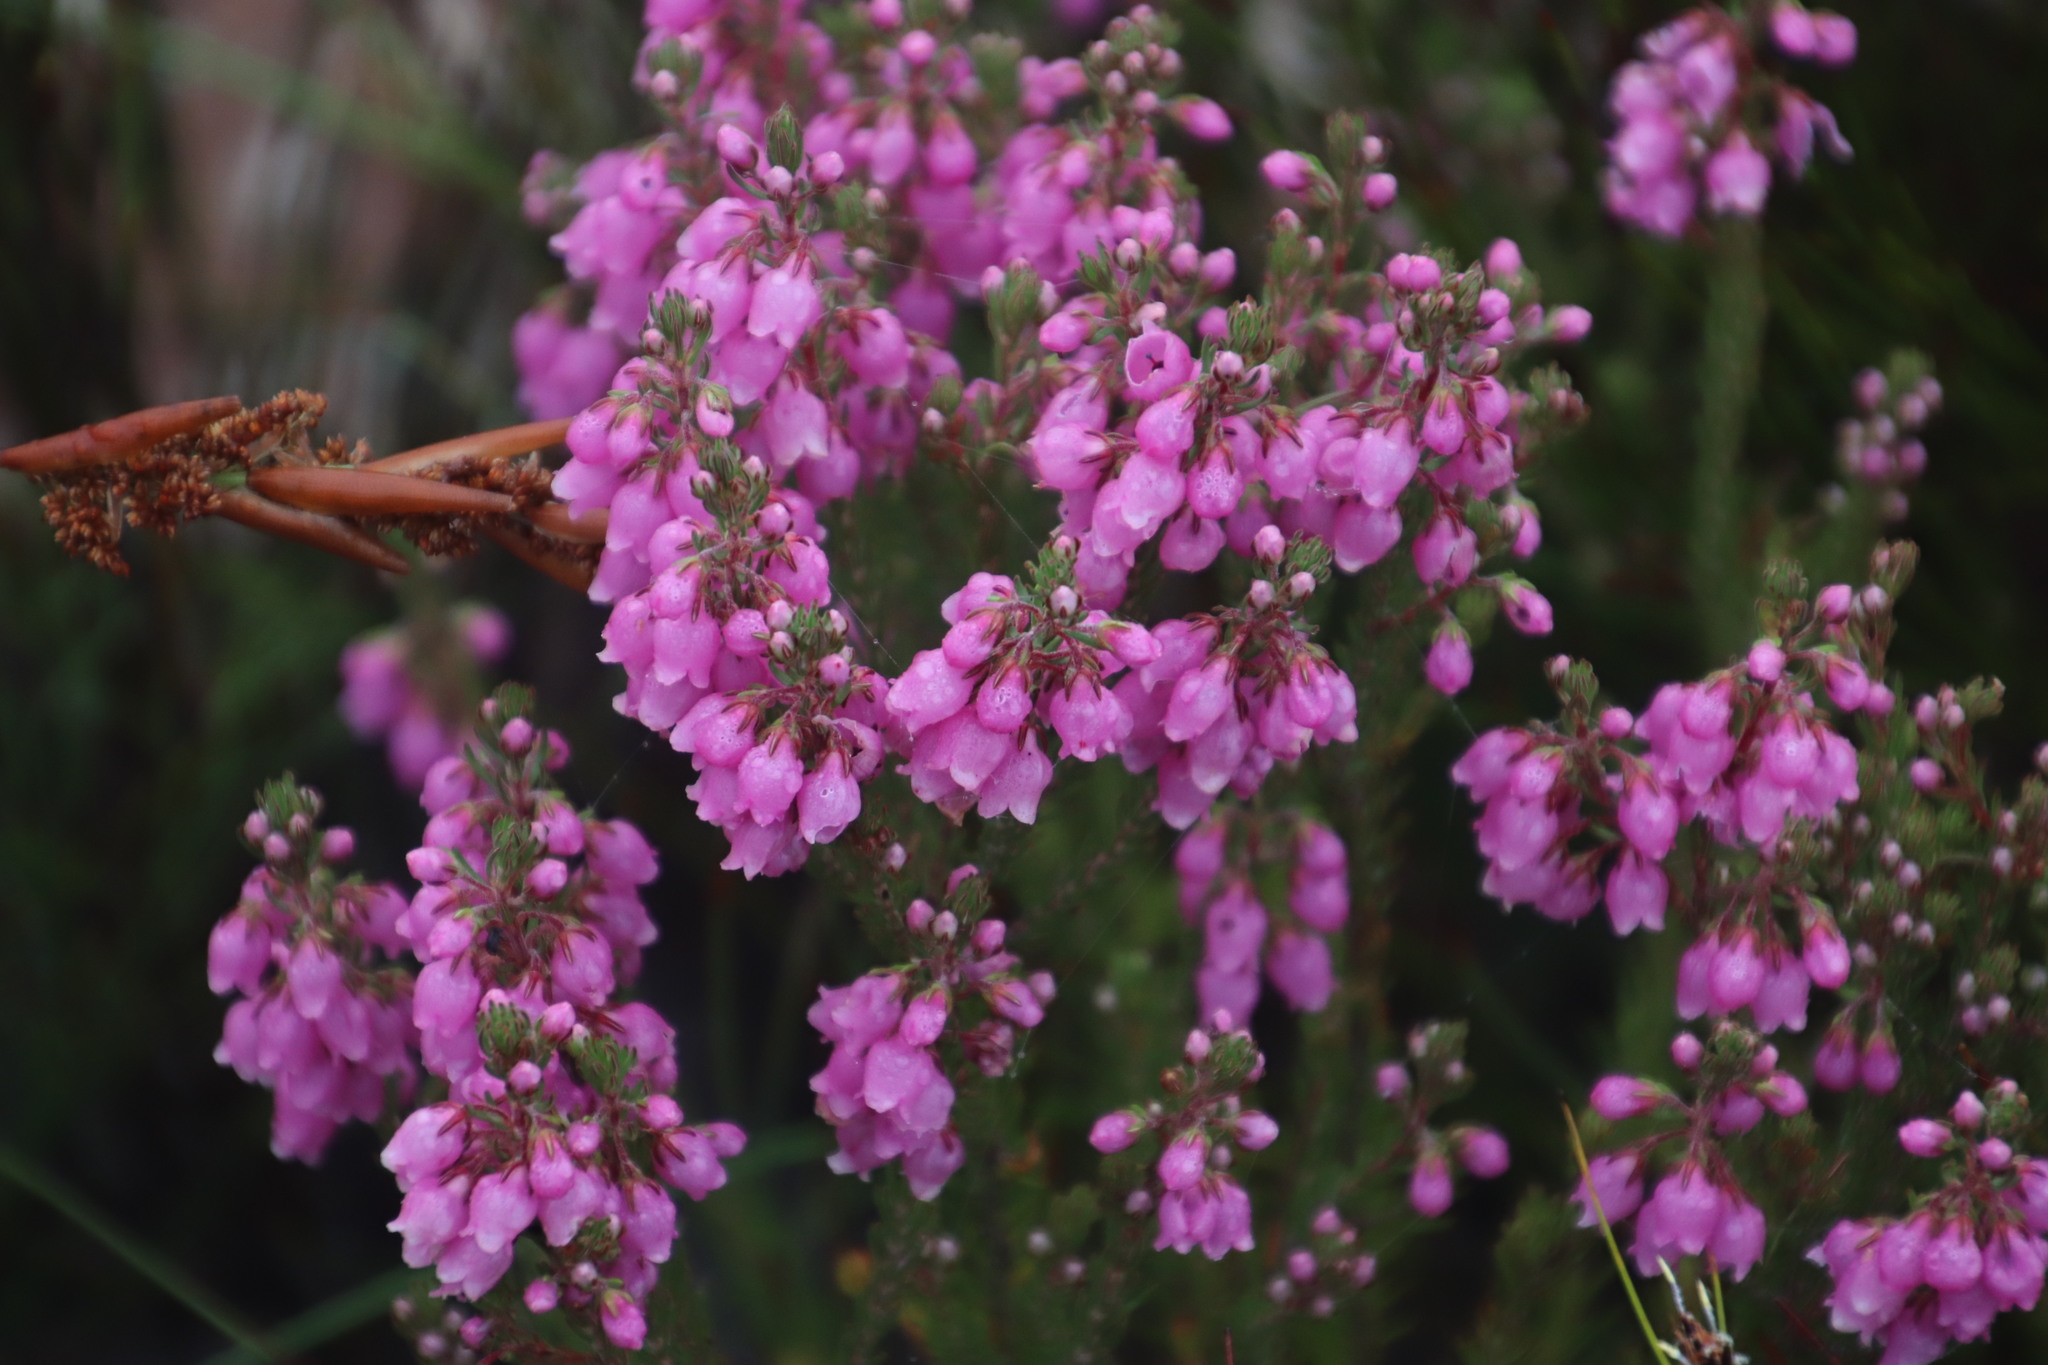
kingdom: Plantae
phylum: Tracheophyta
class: Magnoliopsida
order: Ericales
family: Ericaceae
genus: Erica
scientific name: Erica viscaria
